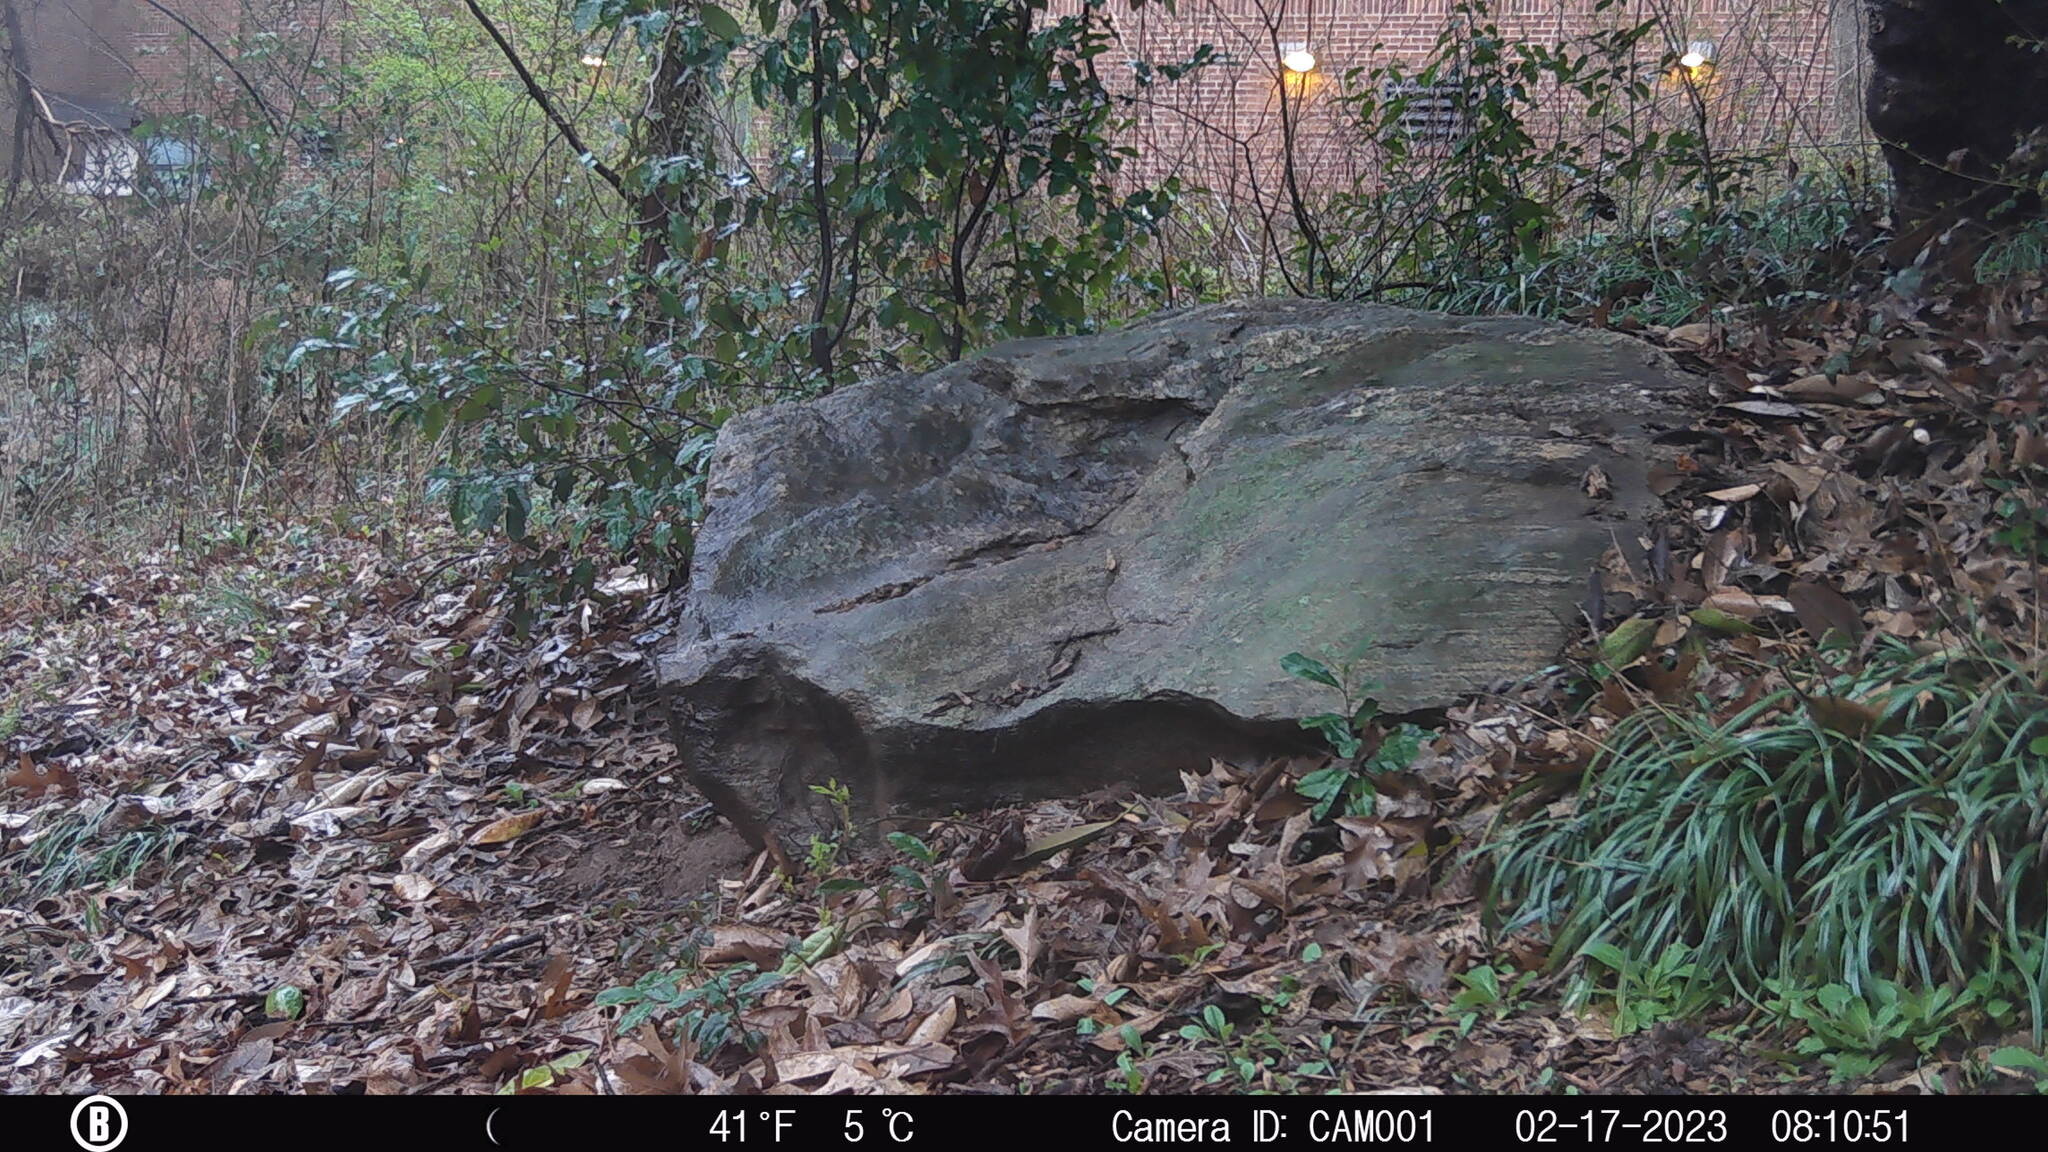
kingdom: Animalia
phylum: Chordata
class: Mammalia
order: Rodentia
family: Sciuridae
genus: Sciurus
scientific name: Sciurus carolinensis
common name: Eastern gray squirrel
